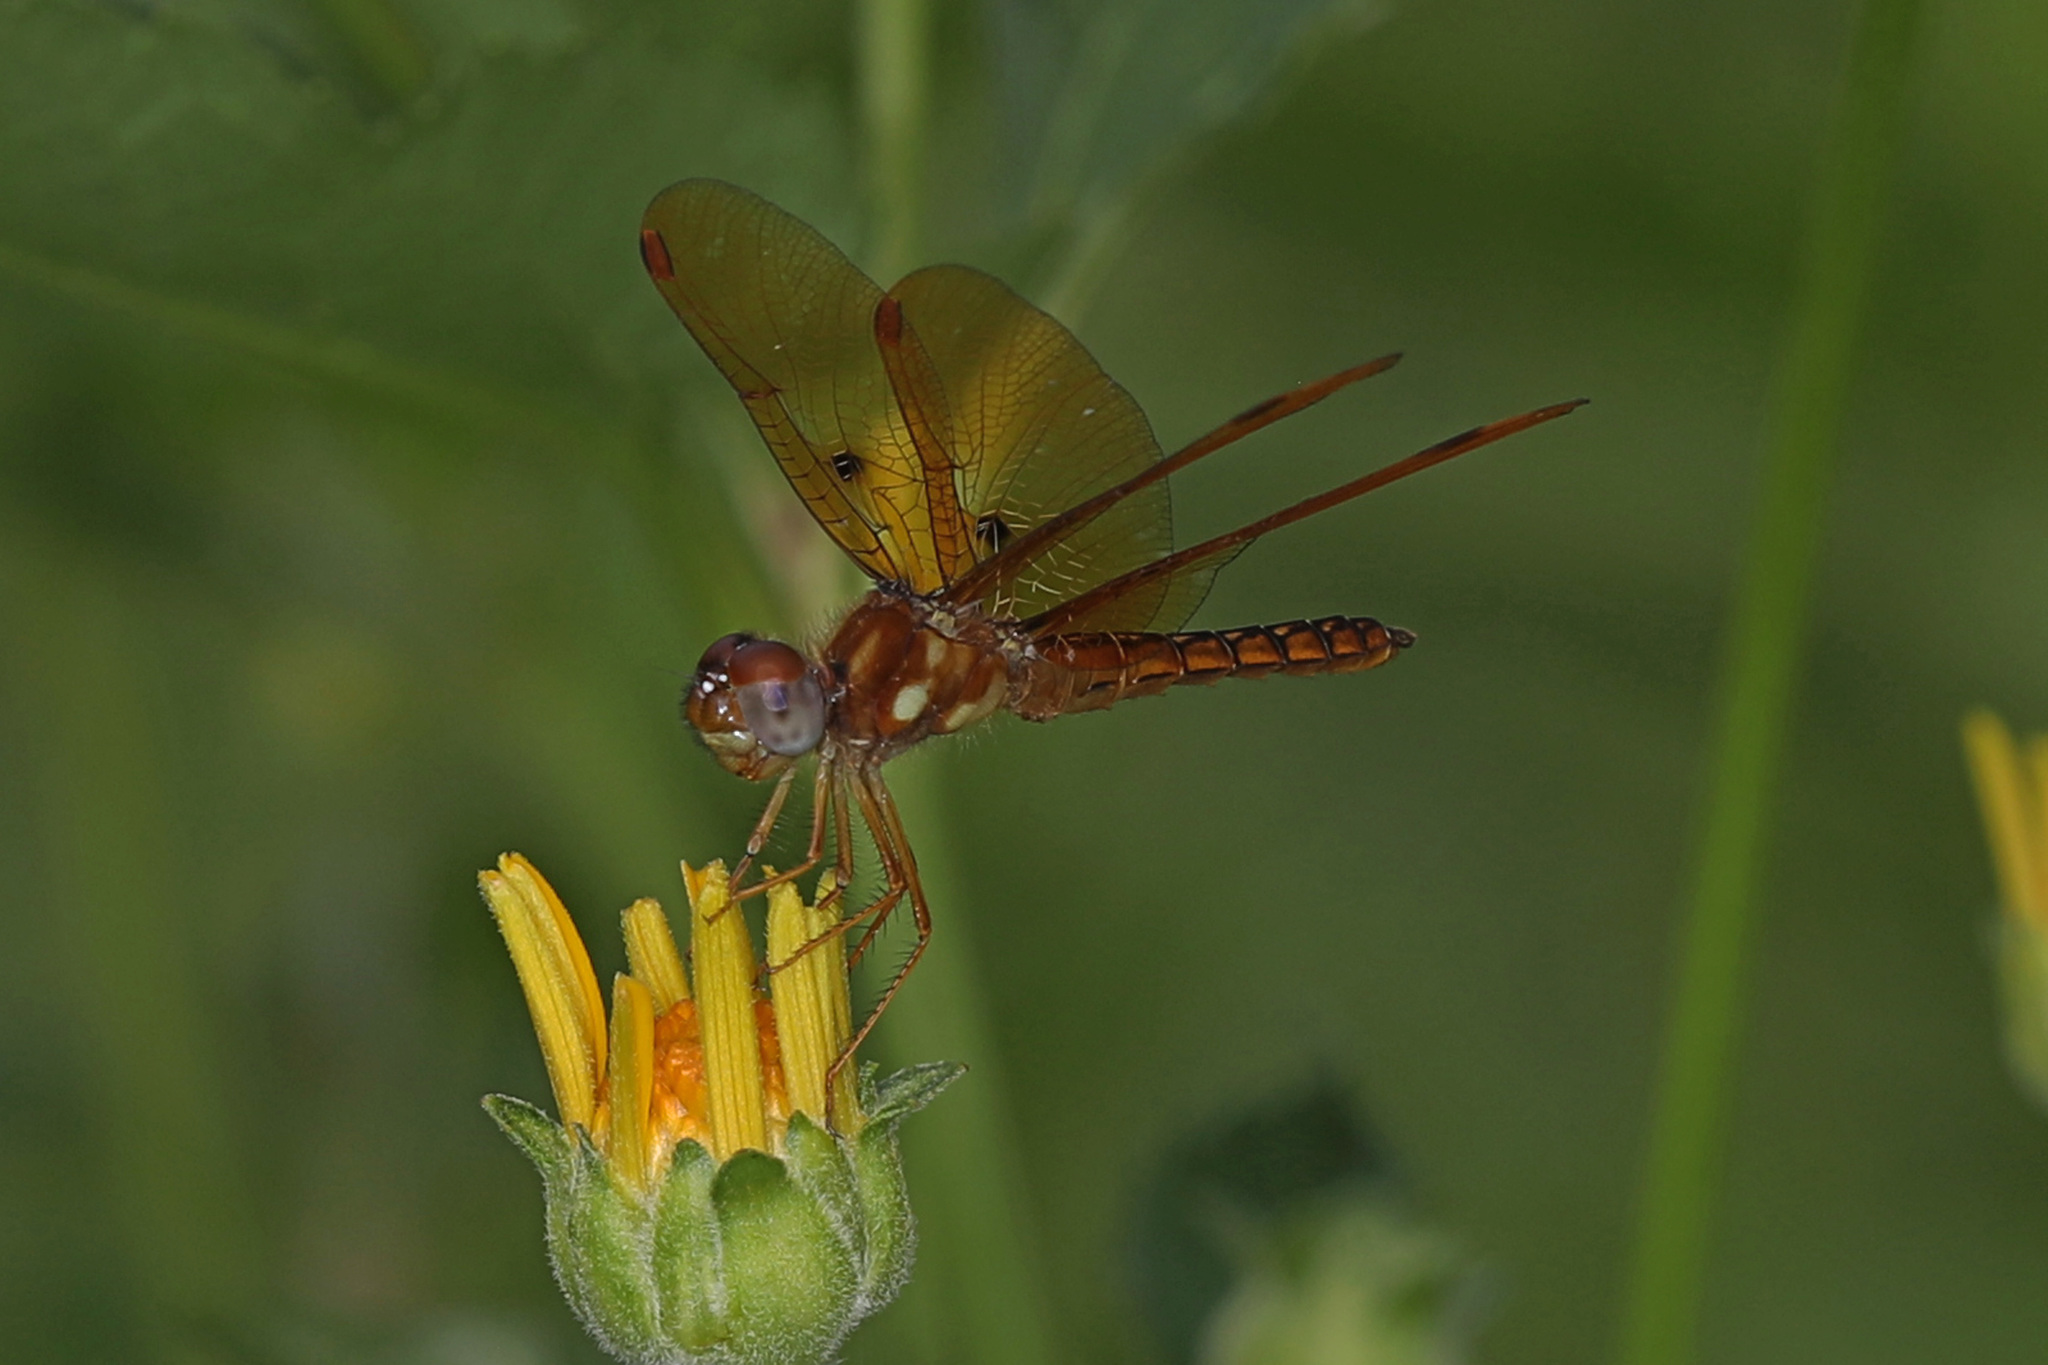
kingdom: Animalia
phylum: Arthropoda
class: Insecta
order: Odonata
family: Libellulidae
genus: Perithemis
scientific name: Perithemis tenera
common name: Eastern amberwing
